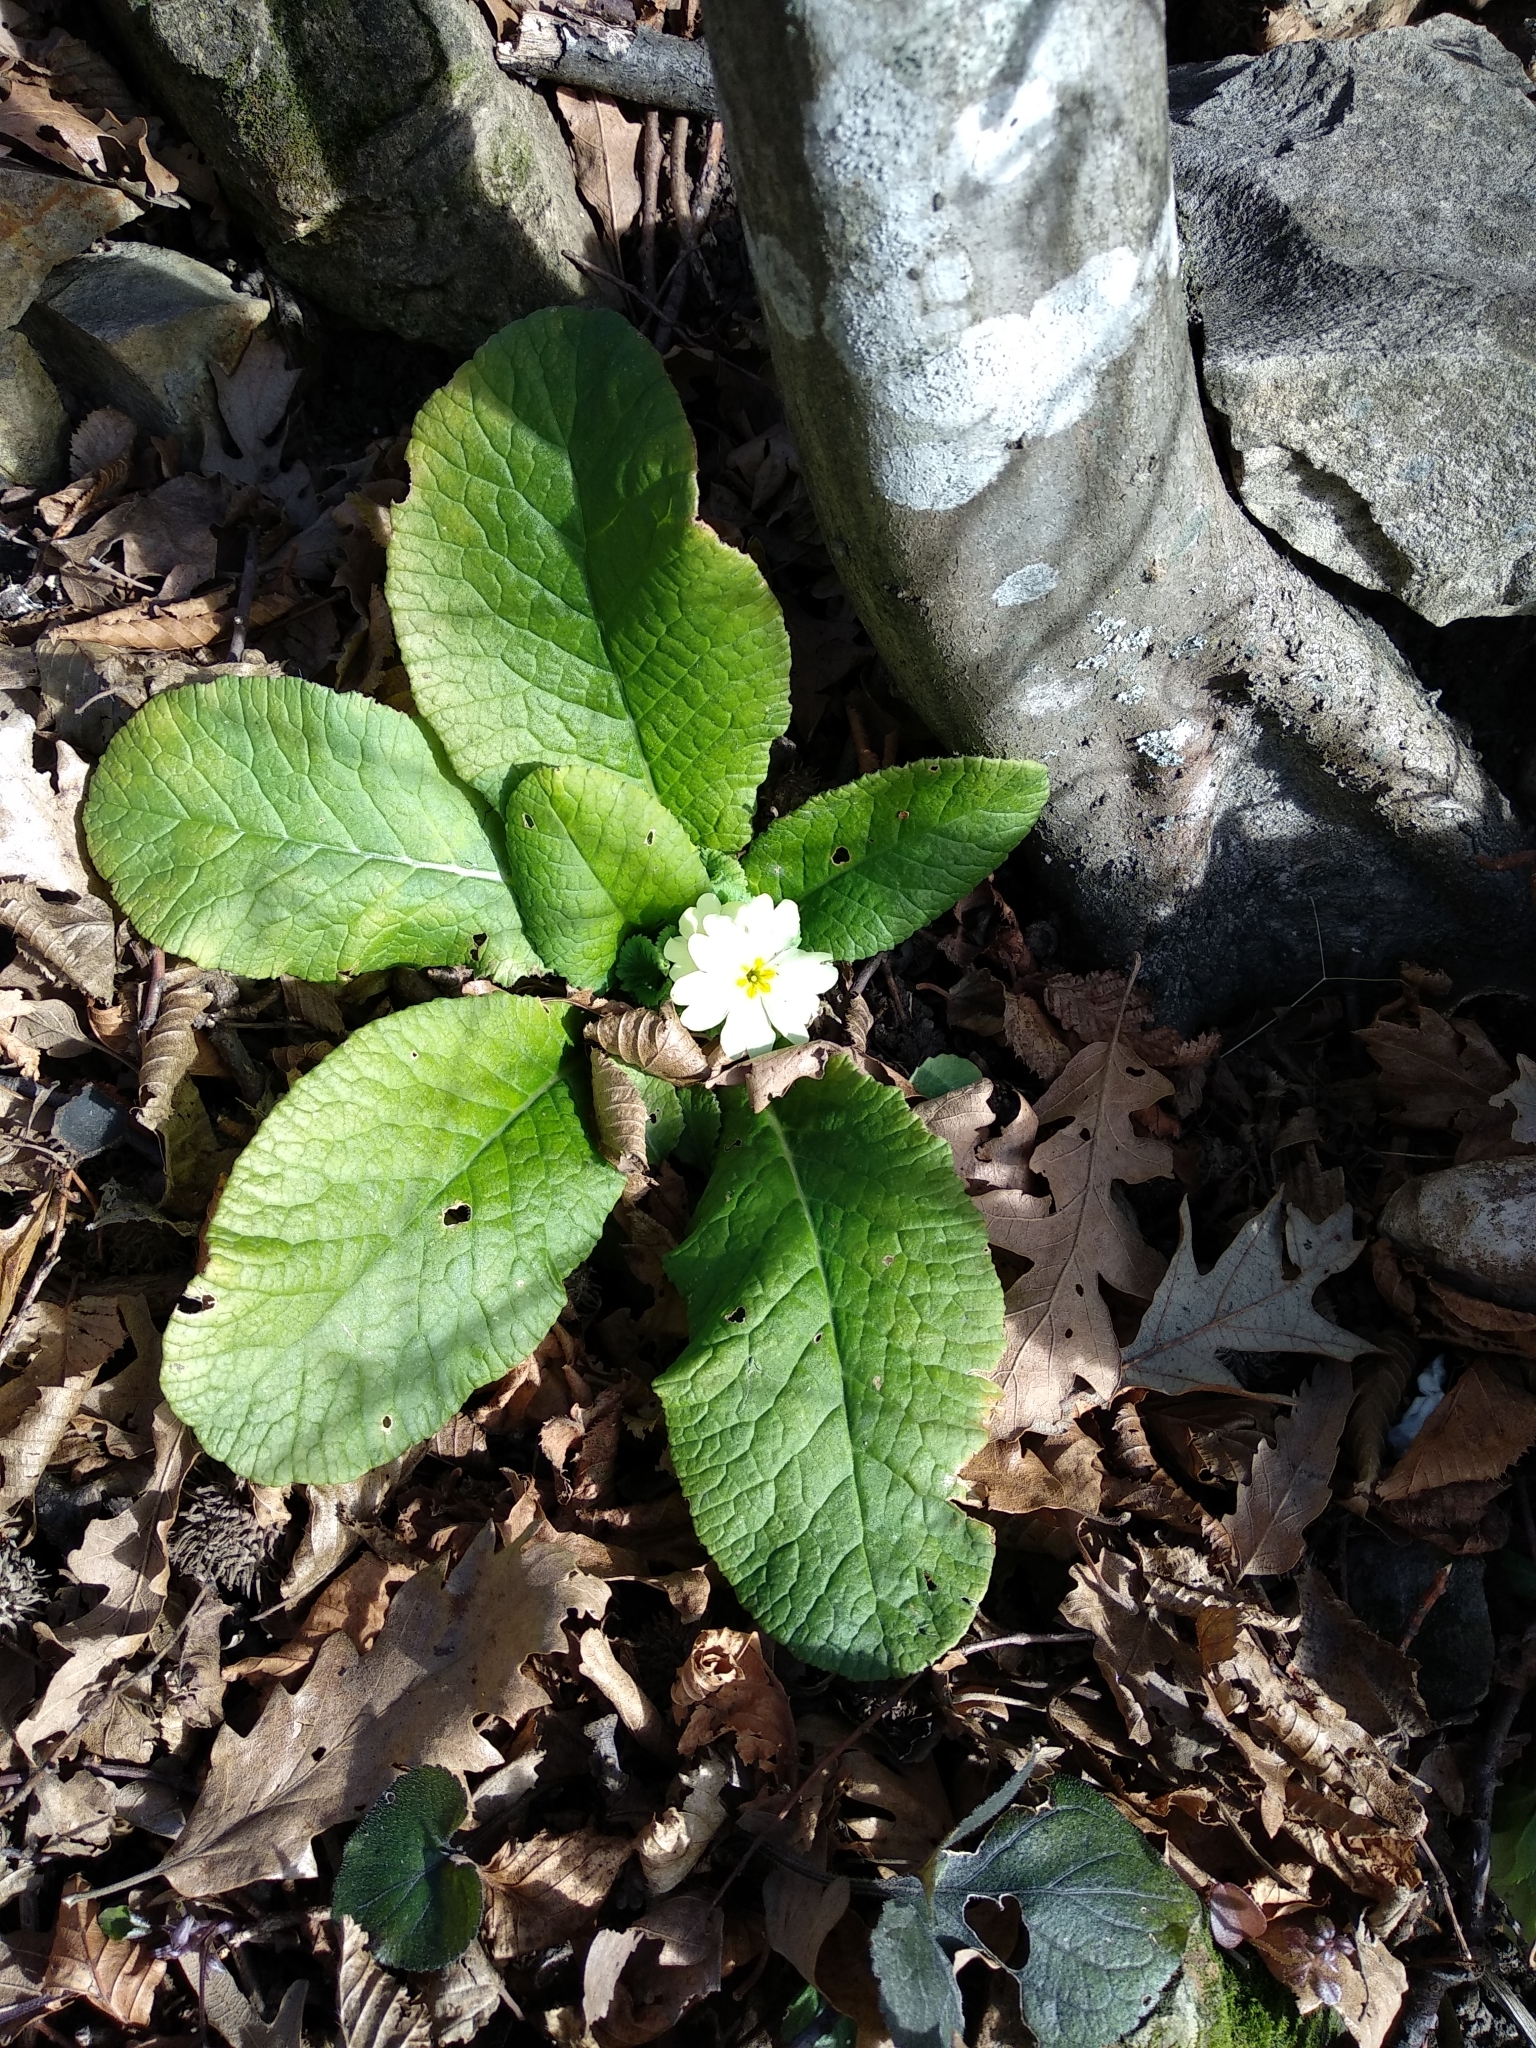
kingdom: Plantae
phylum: Tracheophyta
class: Magnoliopsida
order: Ericales
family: Primulaceae
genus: Primula
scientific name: Primula vulgaris
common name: Primrose
